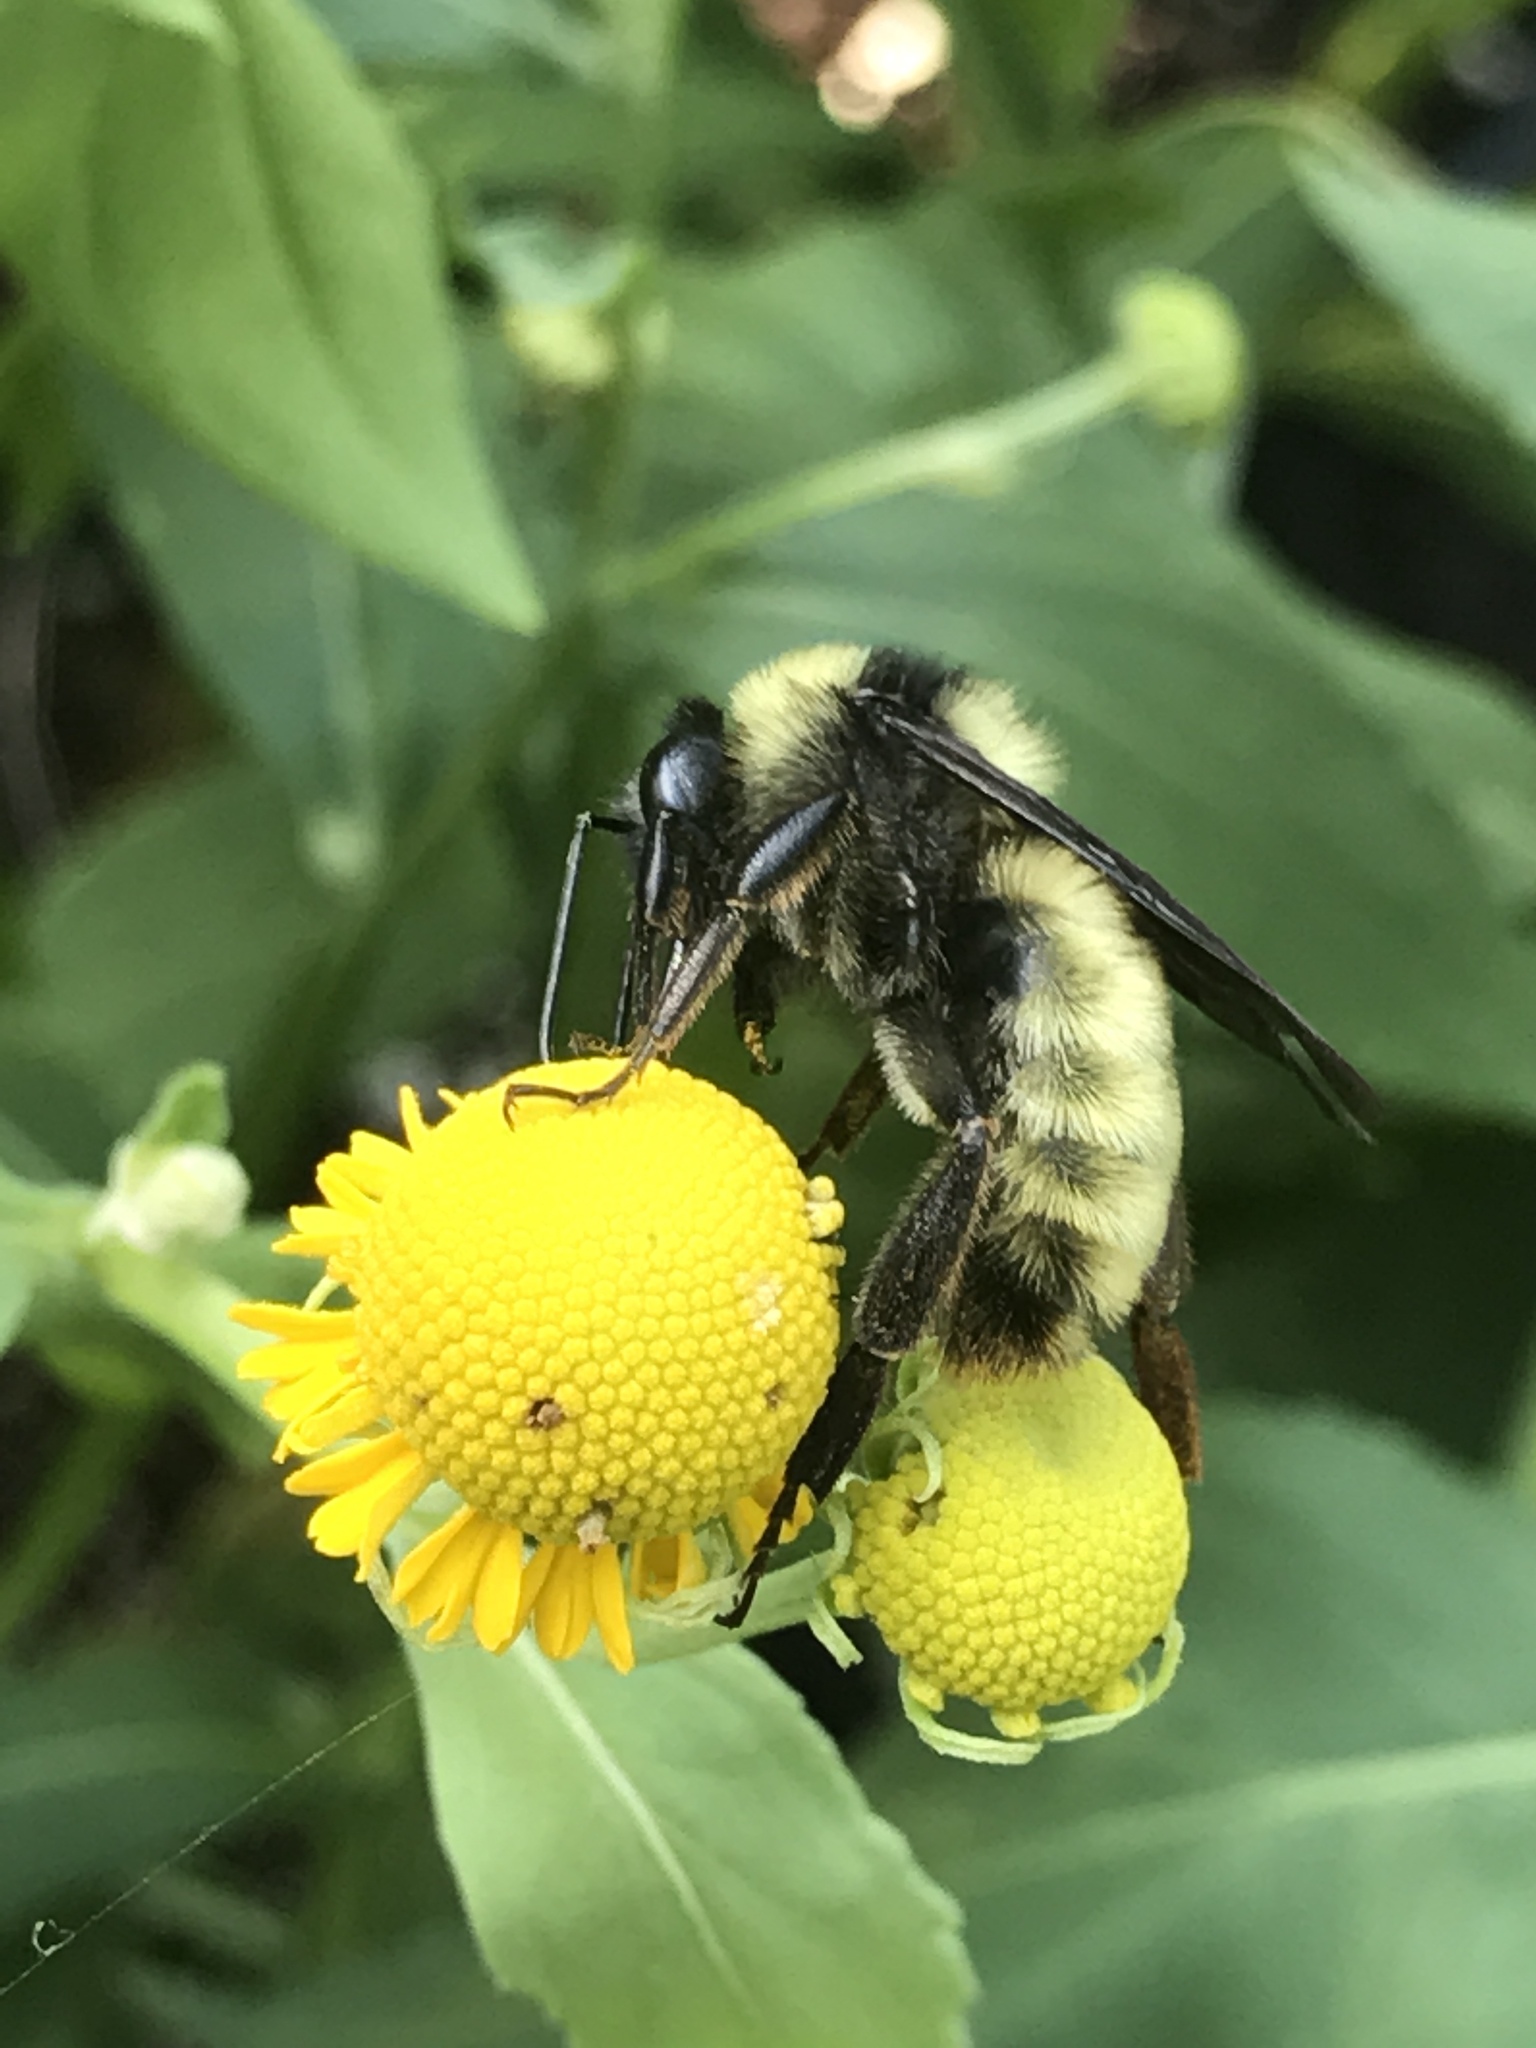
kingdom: Animalia
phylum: Arthropoda
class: Insecta
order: Hymenoptera
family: Apidae
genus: Bombus
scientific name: Bombus pensylvanicus
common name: Bumble bee
